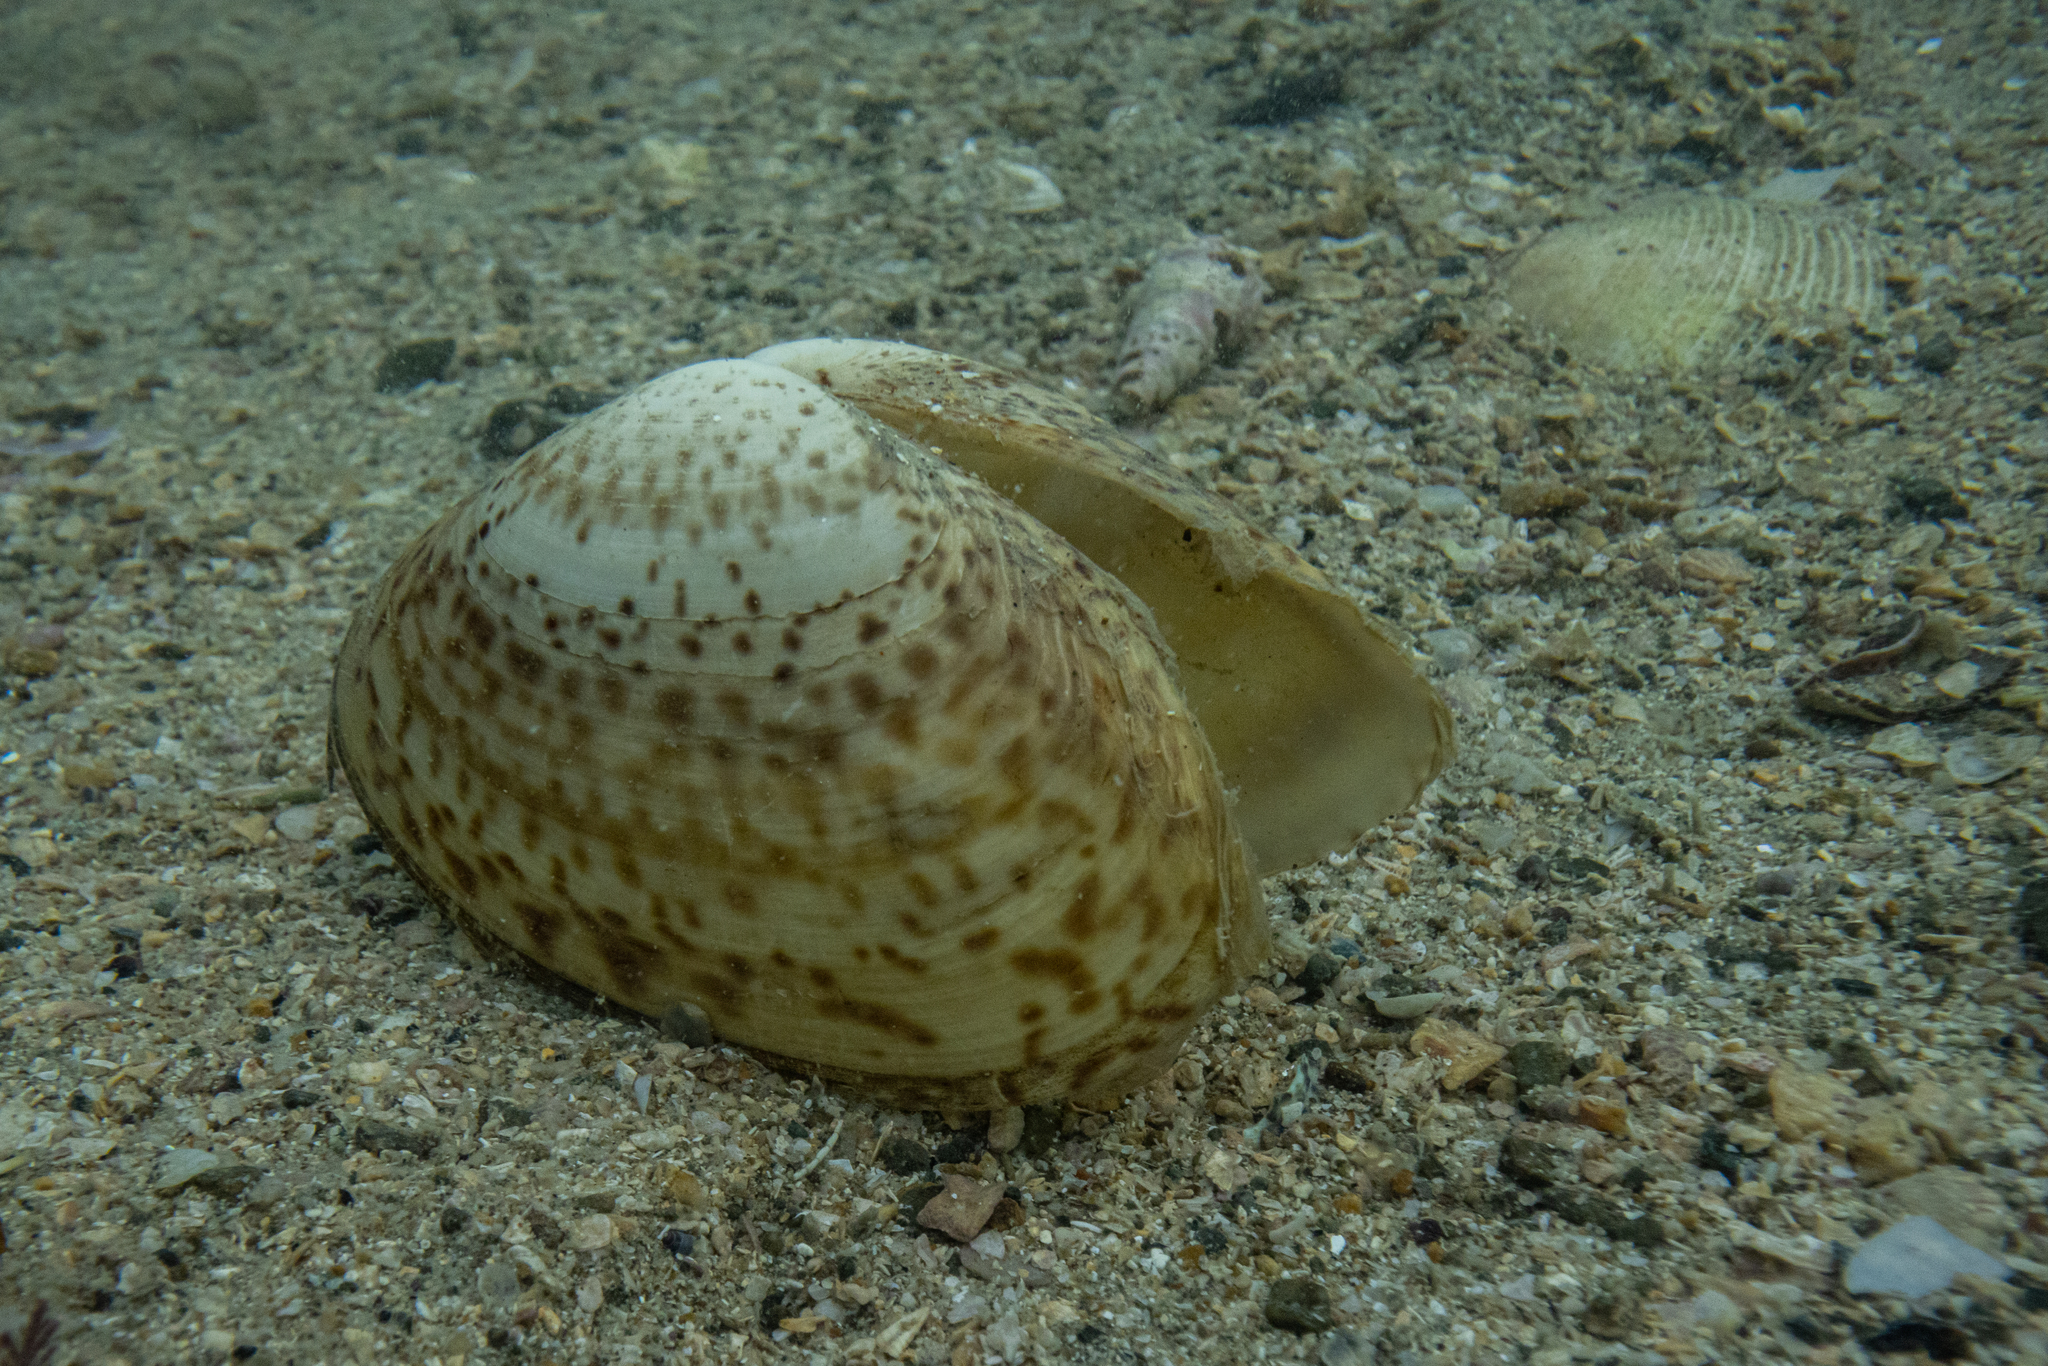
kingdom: Animalia
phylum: Mollusca
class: Bivalvia
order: Venerida
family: Mactridae
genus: Oxyperas
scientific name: Oxyperas elongatum
